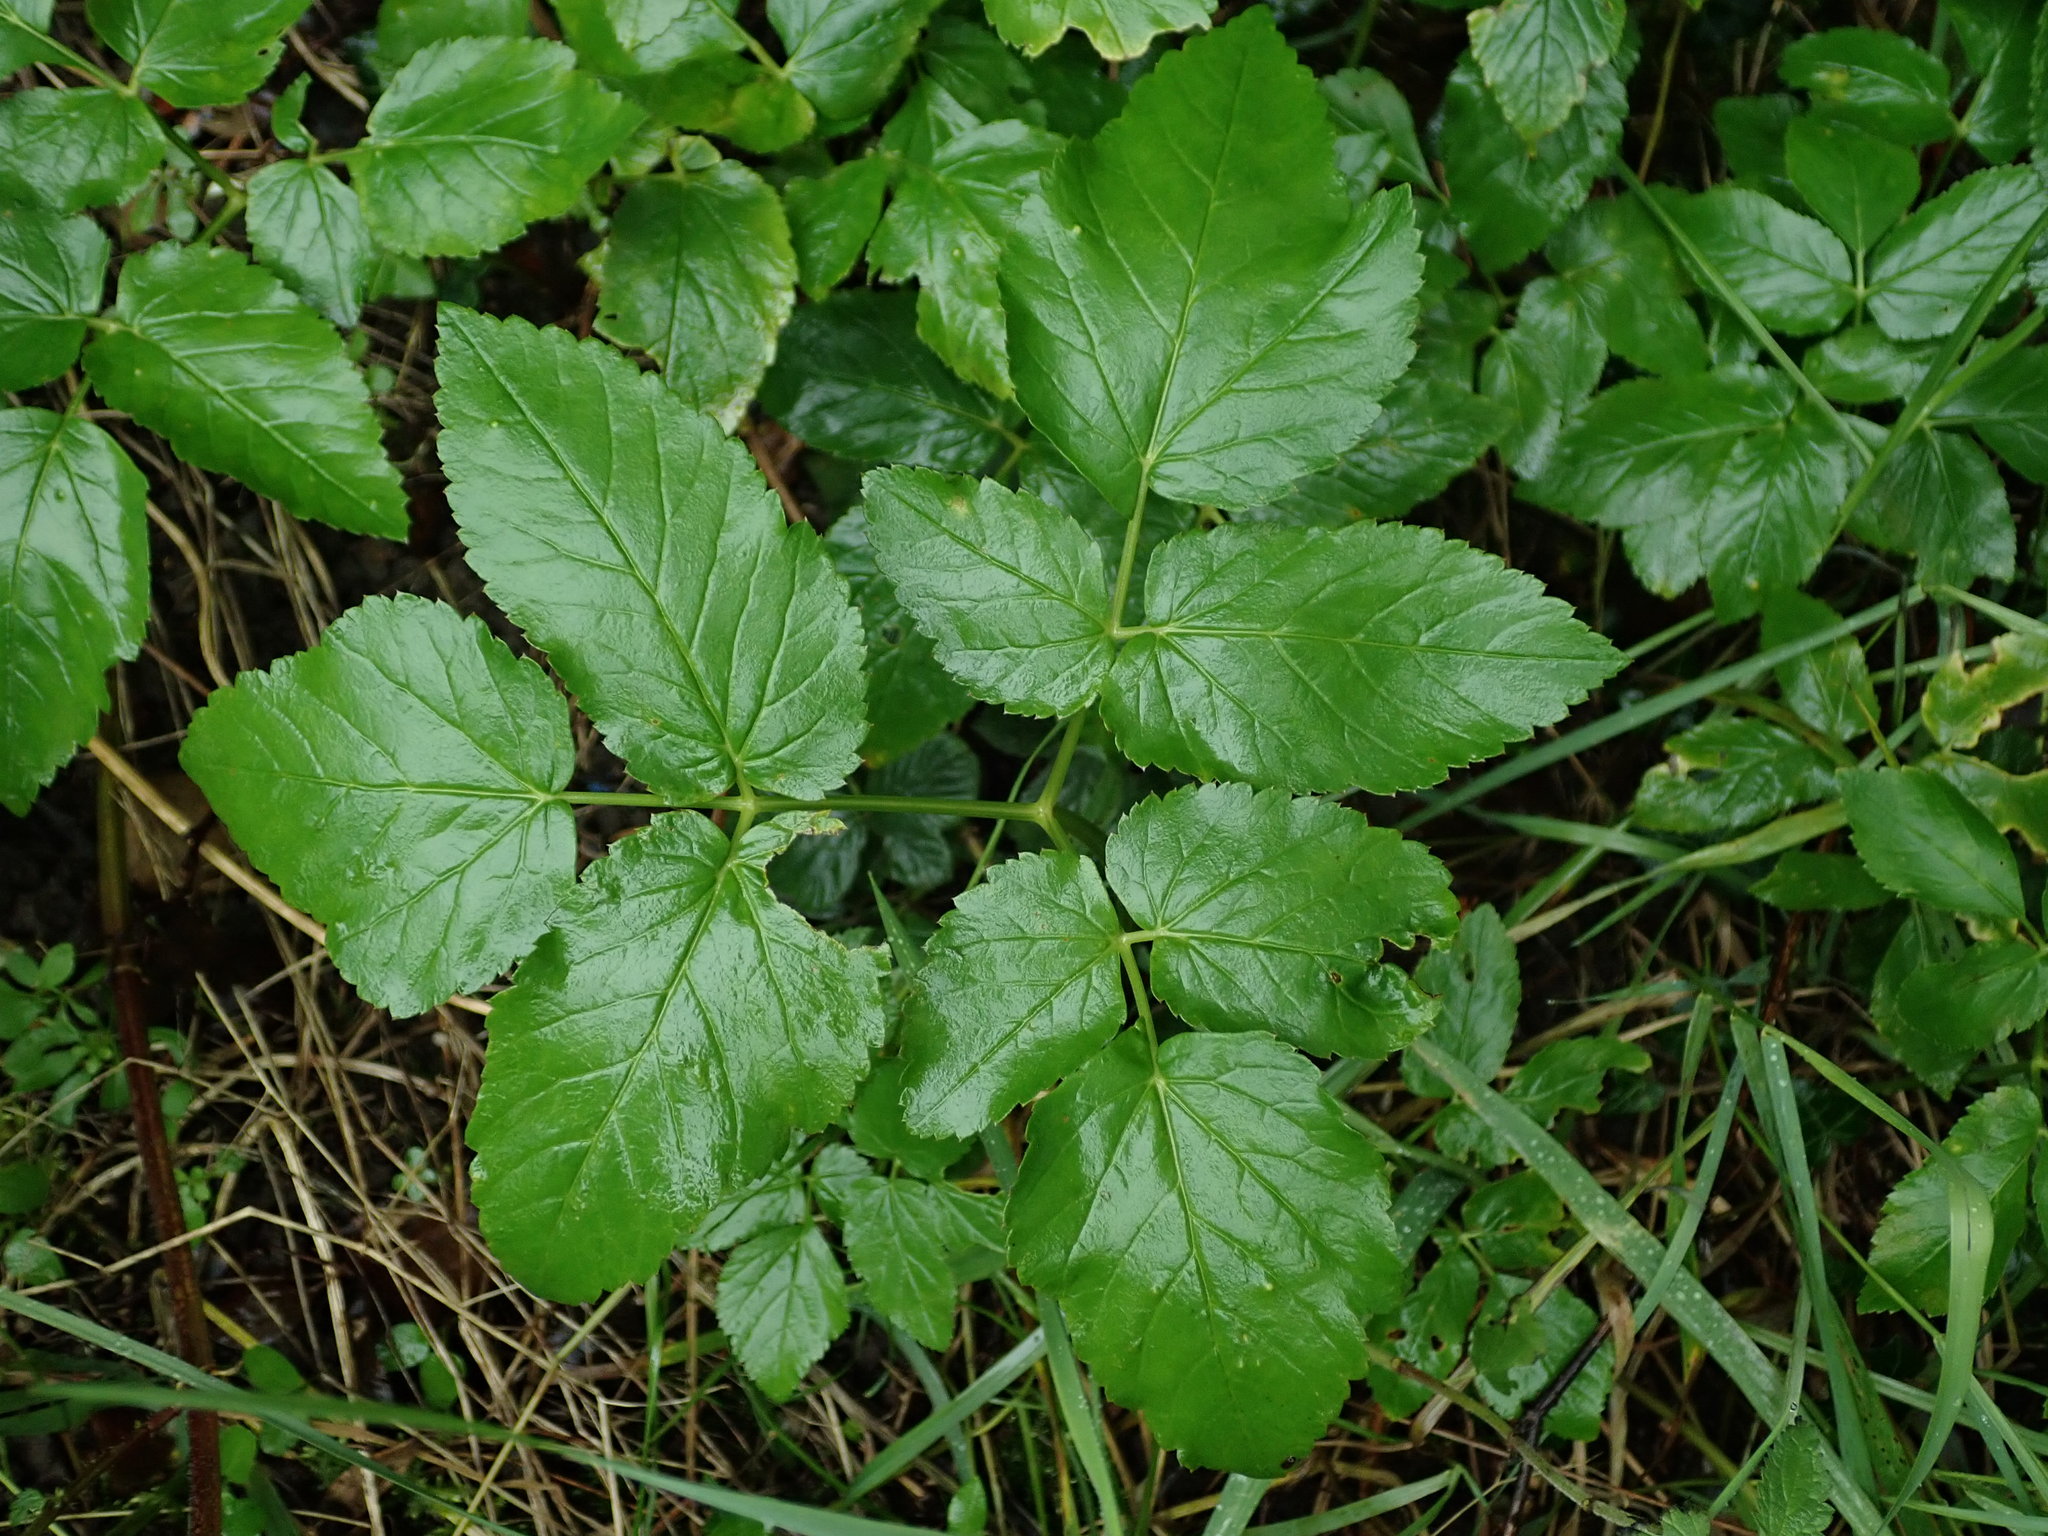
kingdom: Plantae
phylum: Tracheophyta
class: Magnoliopsida
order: Apiales
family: Apiaceae
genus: Aegopodium
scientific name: Aegopodium podagraria
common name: Ground-elder
